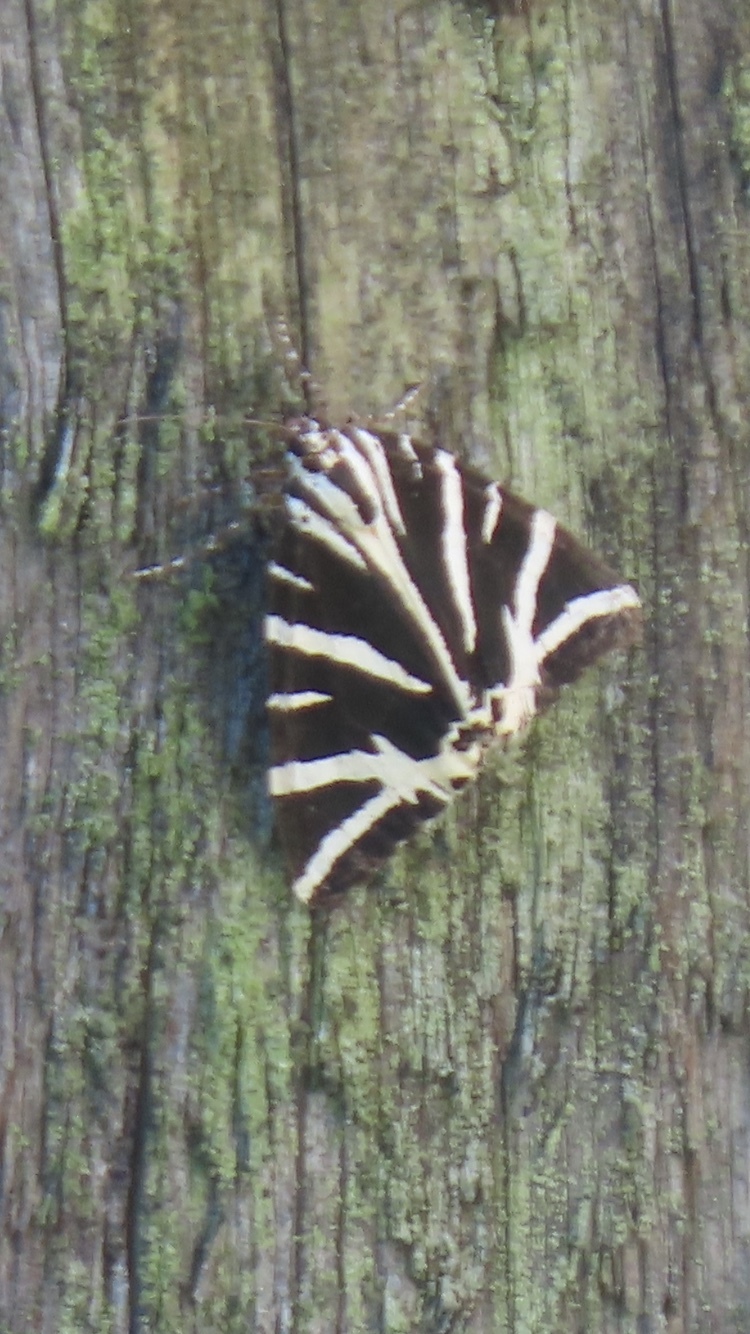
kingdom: Animalia
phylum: Arthropoda
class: Insecta
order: Lepidoptera
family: Erebidae
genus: Euplagia
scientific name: Euplagia quadripunctaria
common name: Jersey tiger
